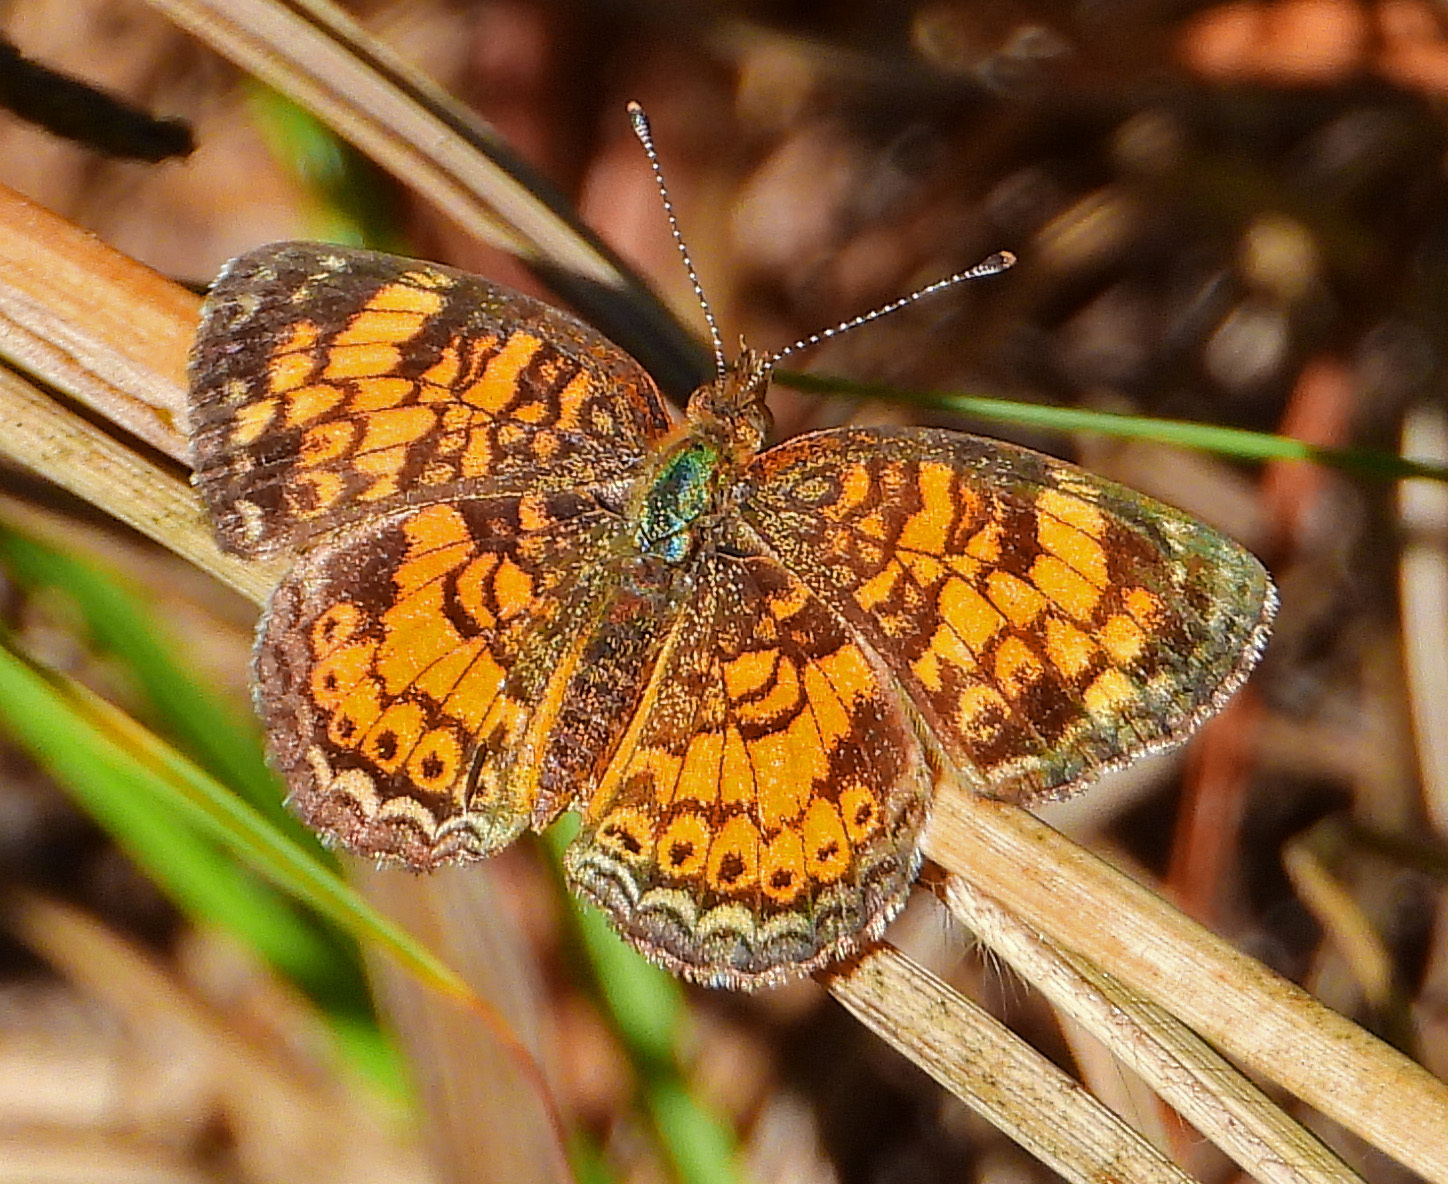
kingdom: Animalia
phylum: Arthropoda
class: Insecta
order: Lepidoptera
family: Nymphalidae
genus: Phyciodes
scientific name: Phyciodes tharos
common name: Pearl crescent
